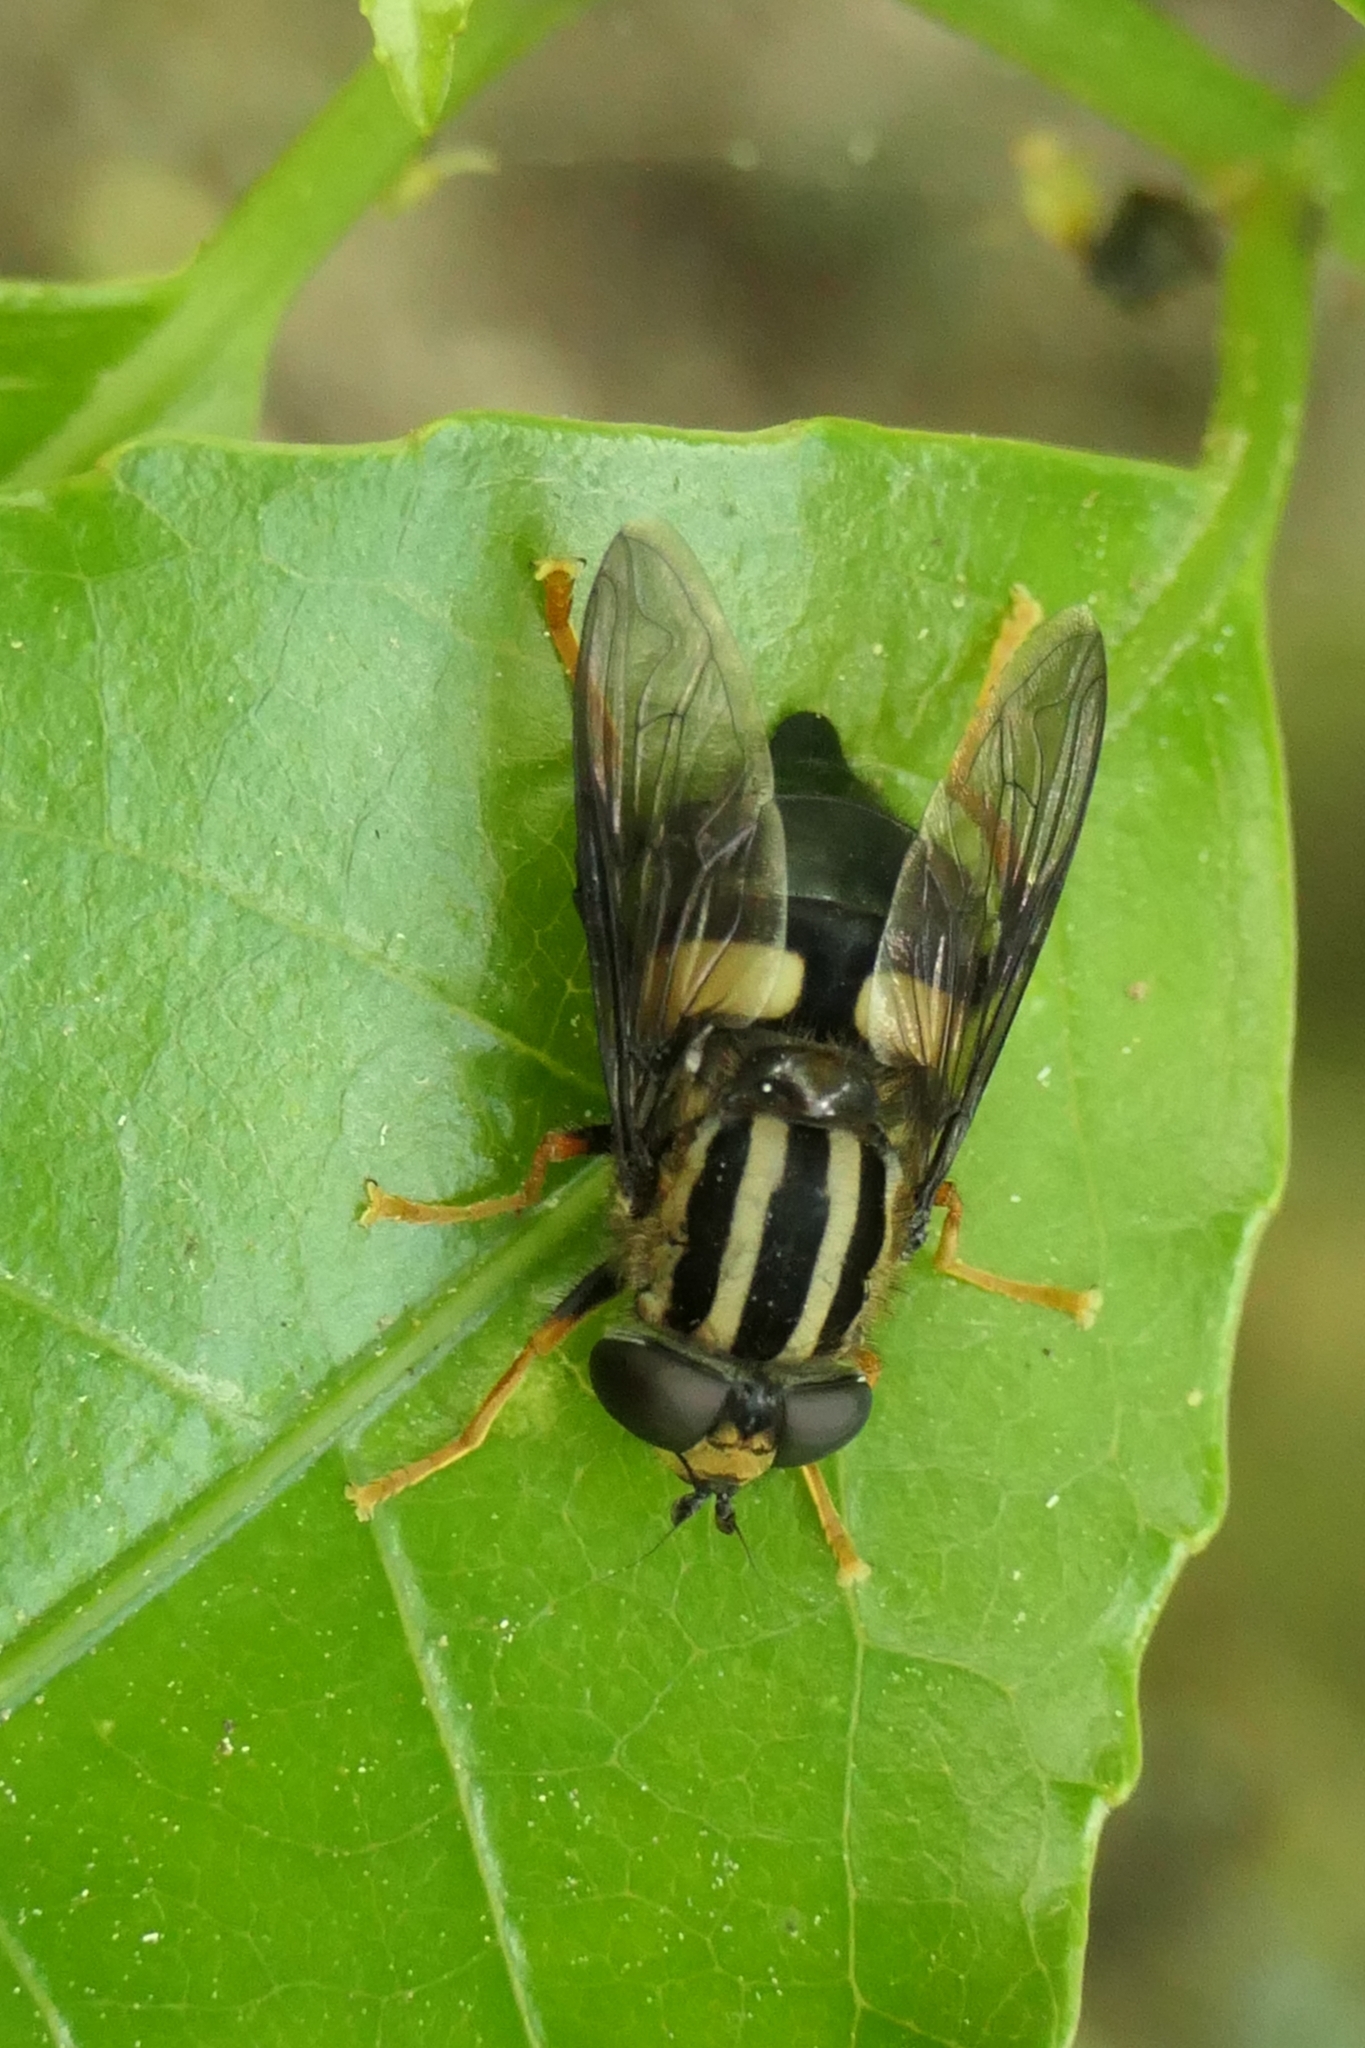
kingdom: Animalia
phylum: Arthropoda
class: Insecta
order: Diptera
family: Syrphidae
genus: Helophilus
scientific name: Helophilus seelandicus
